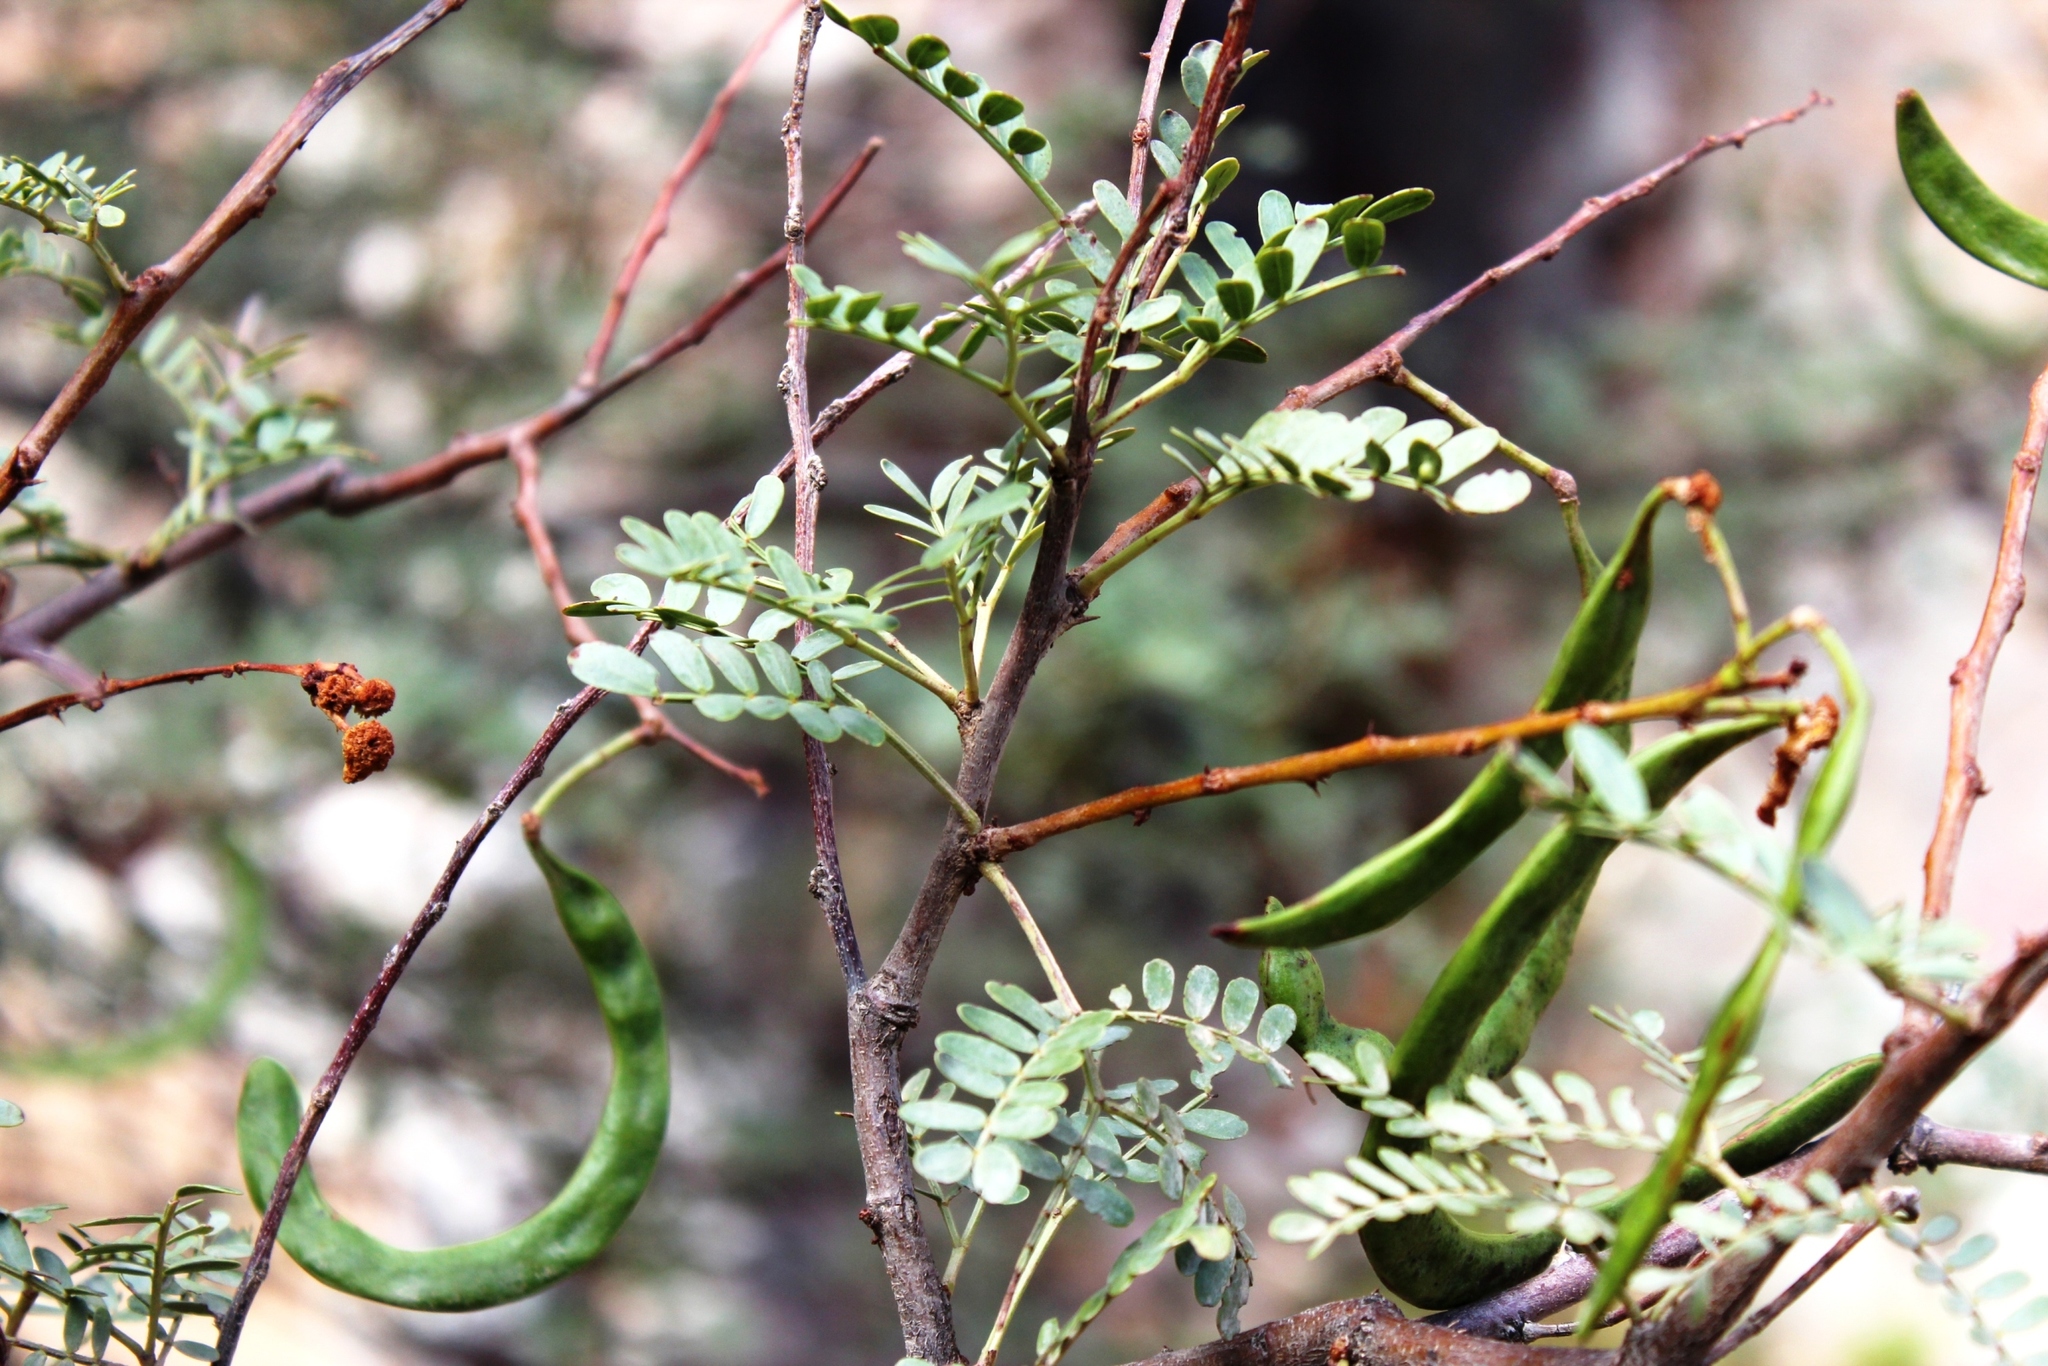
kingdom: Plantae
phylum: Tracheophyta
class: Magnoliopsida
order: Fabales
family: Fabaceae
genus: Vachellia
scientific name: Vachellia karroo
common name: Sweet thorn
